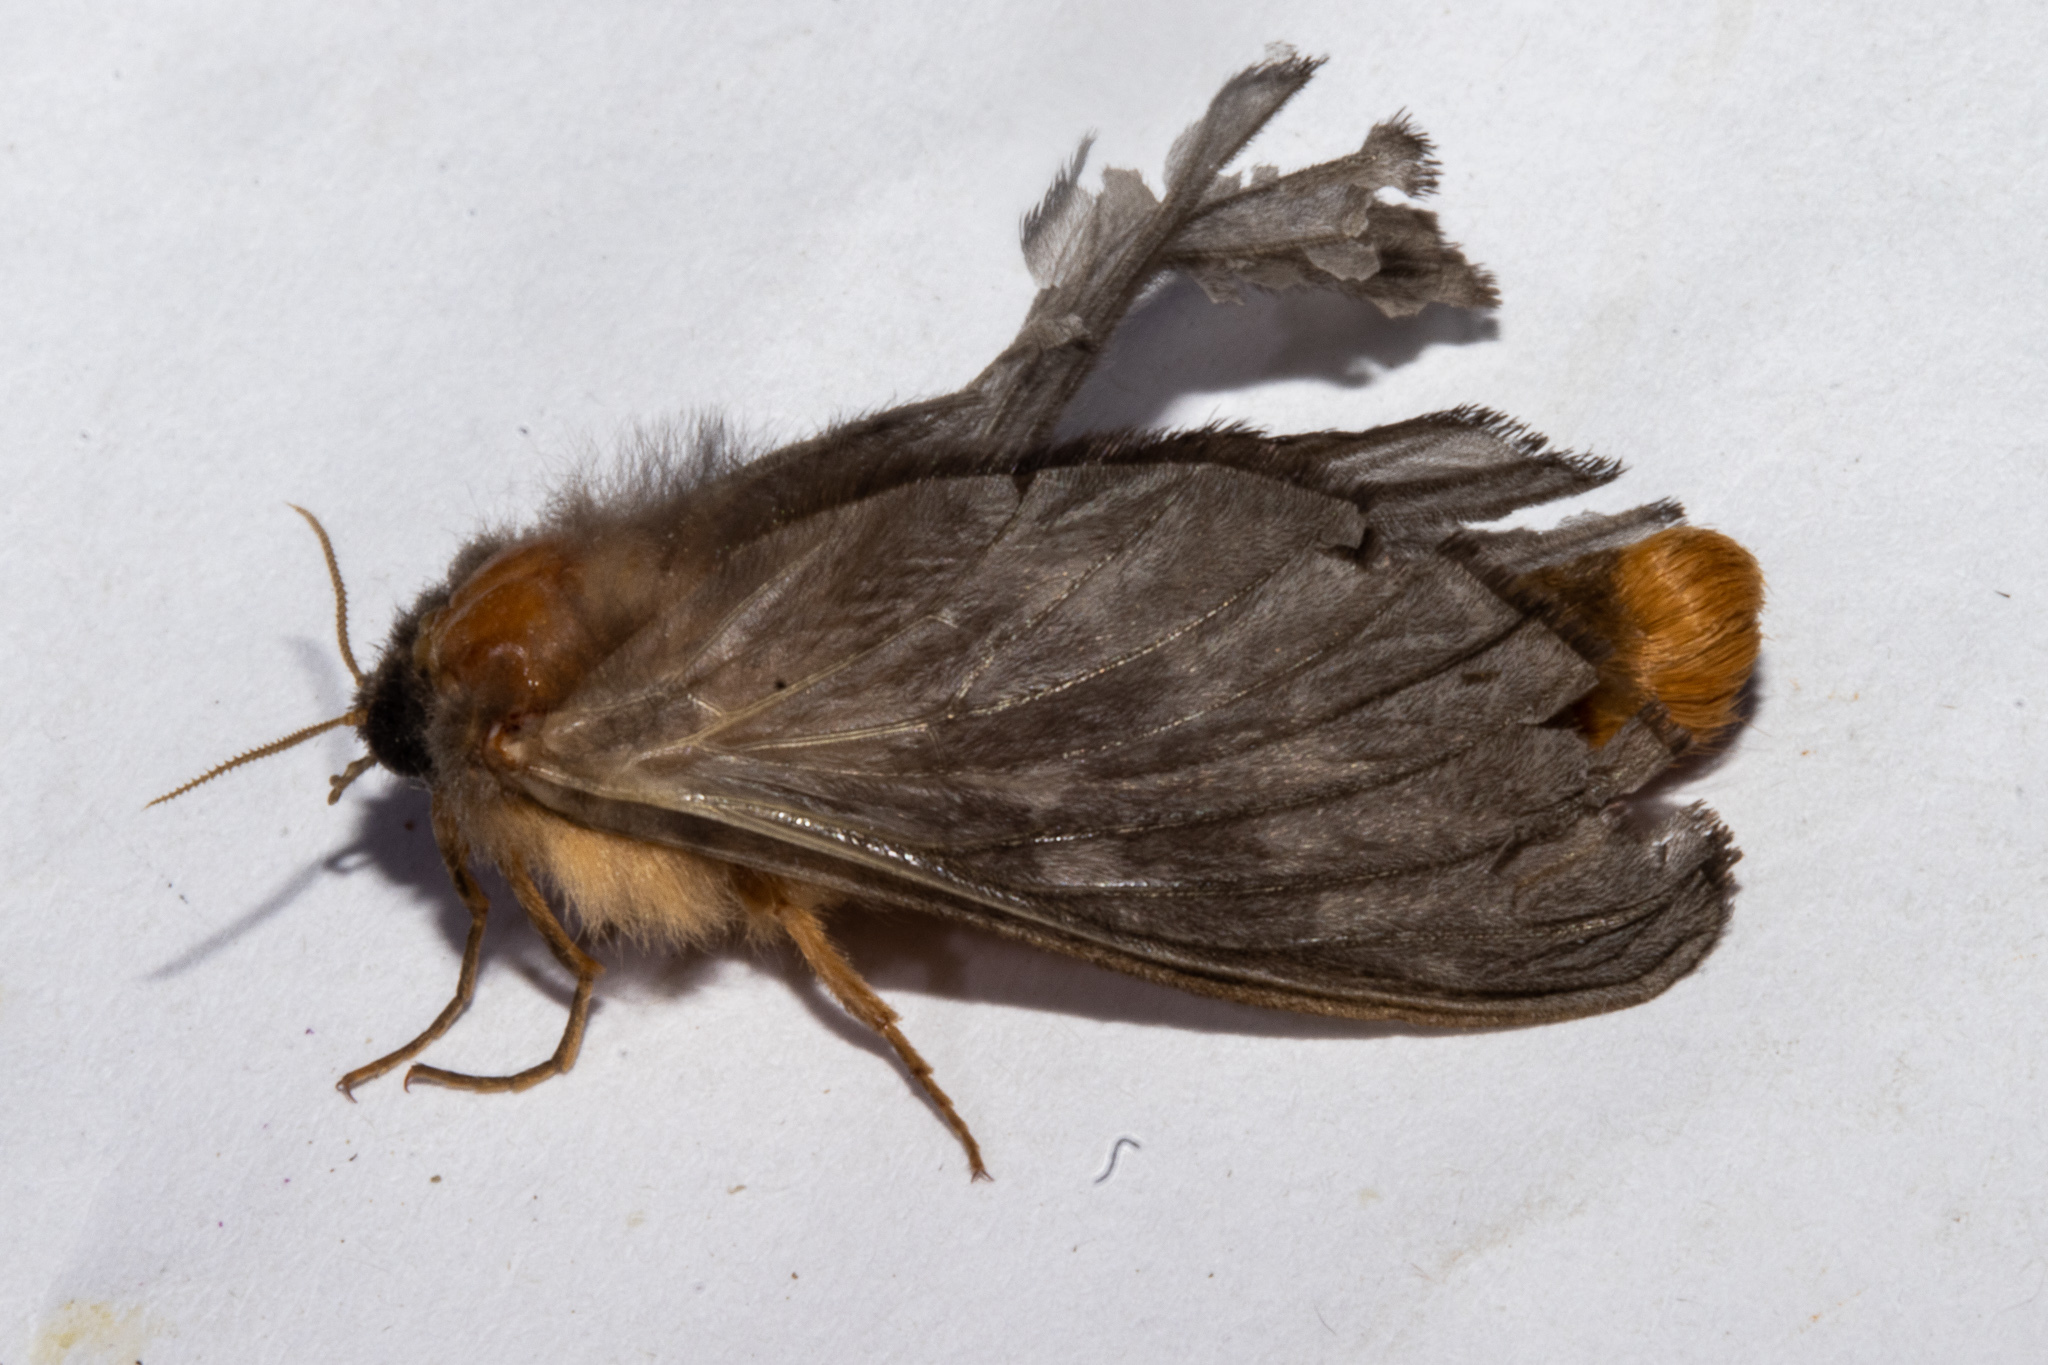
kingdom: Animalia
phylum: Arthropoda
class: Insecta
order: Lepidoptera
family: Hepialidae
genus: Cladoxycanus
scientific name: Cladoxycanus minos
